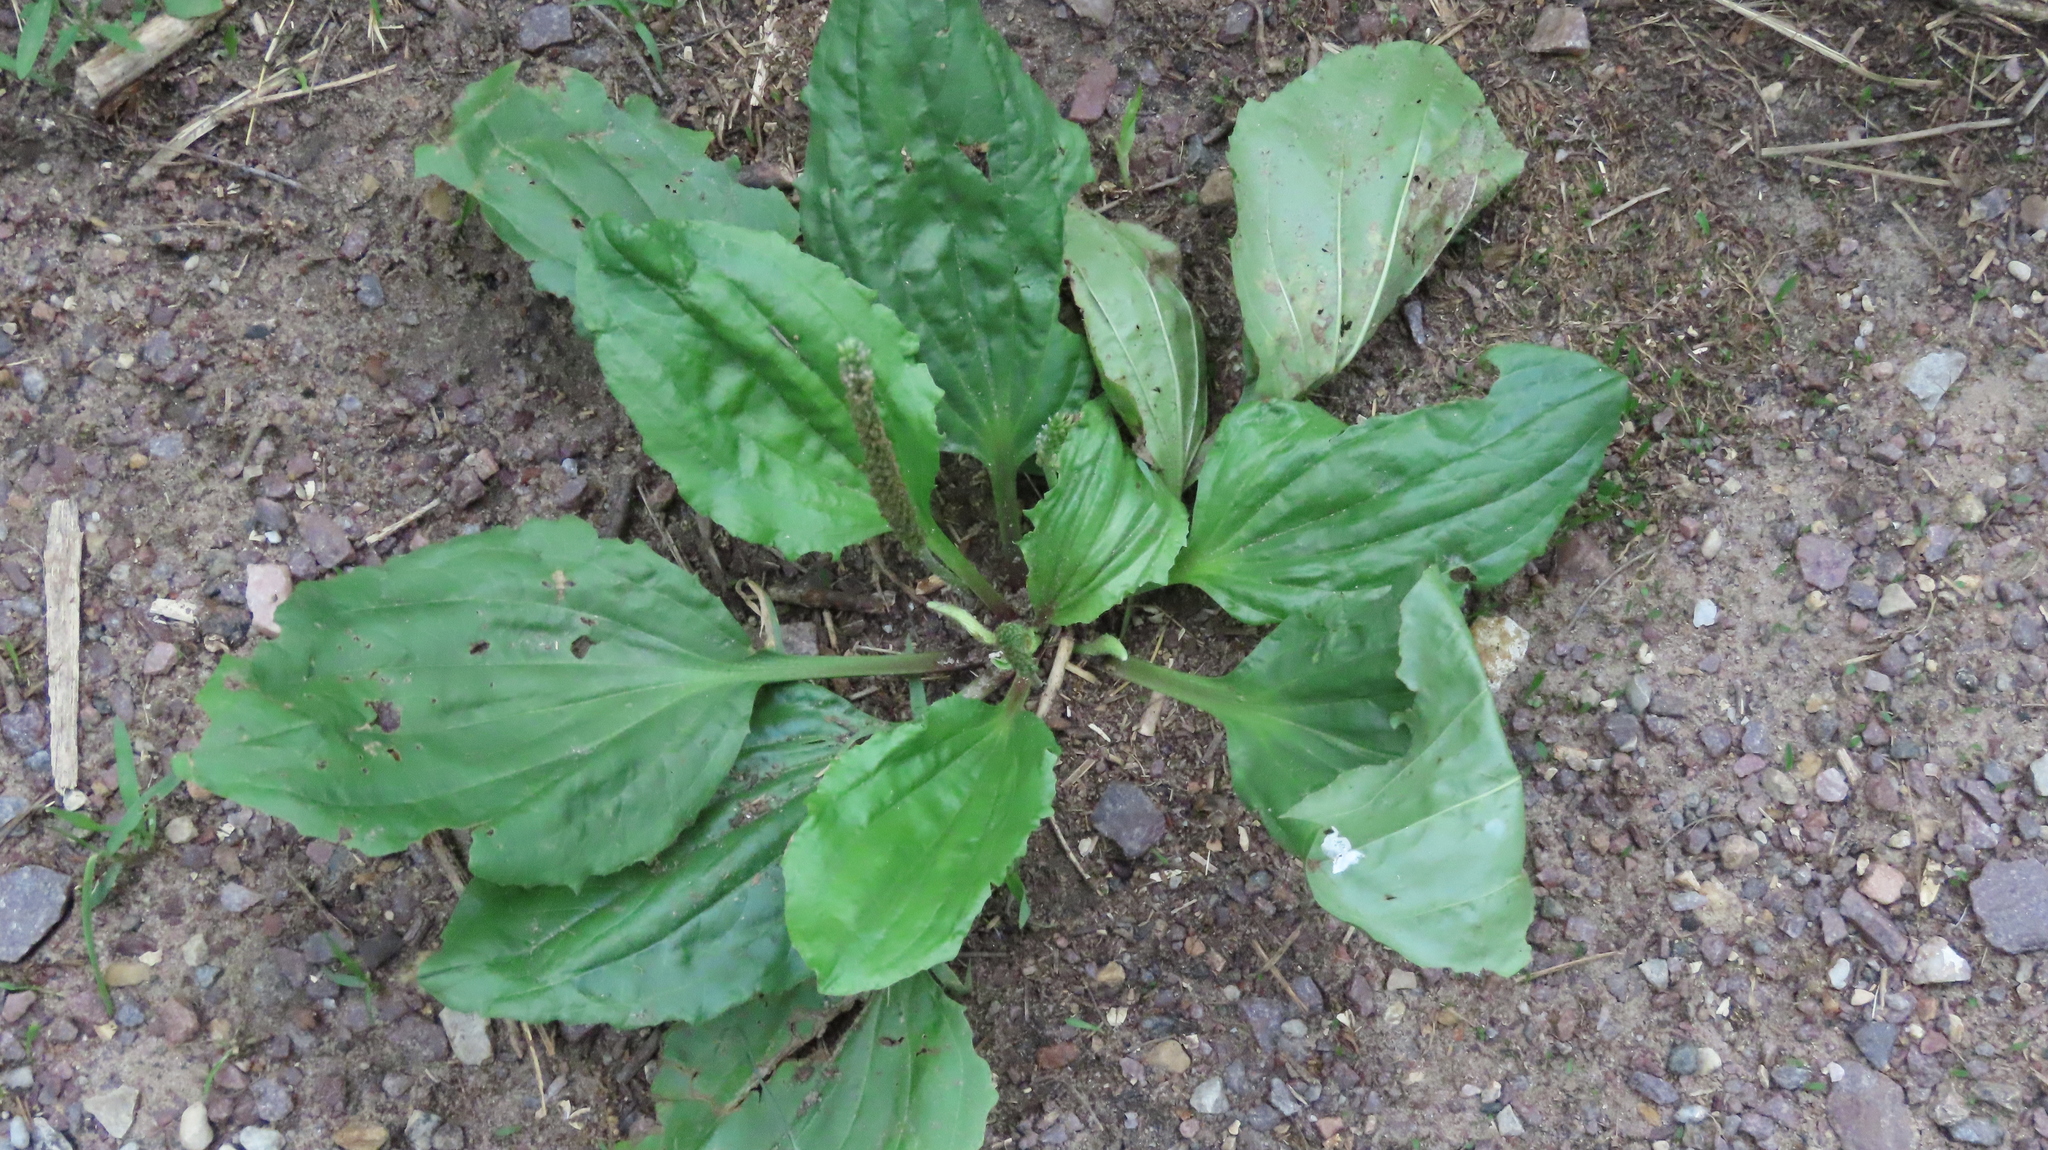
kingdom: Plantae
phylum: Tracheophyta
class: Magnoliopsida
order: Lamiales
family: Plantaginaceae
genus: Plantago
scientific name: Plantago rugelii
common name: American plantain
